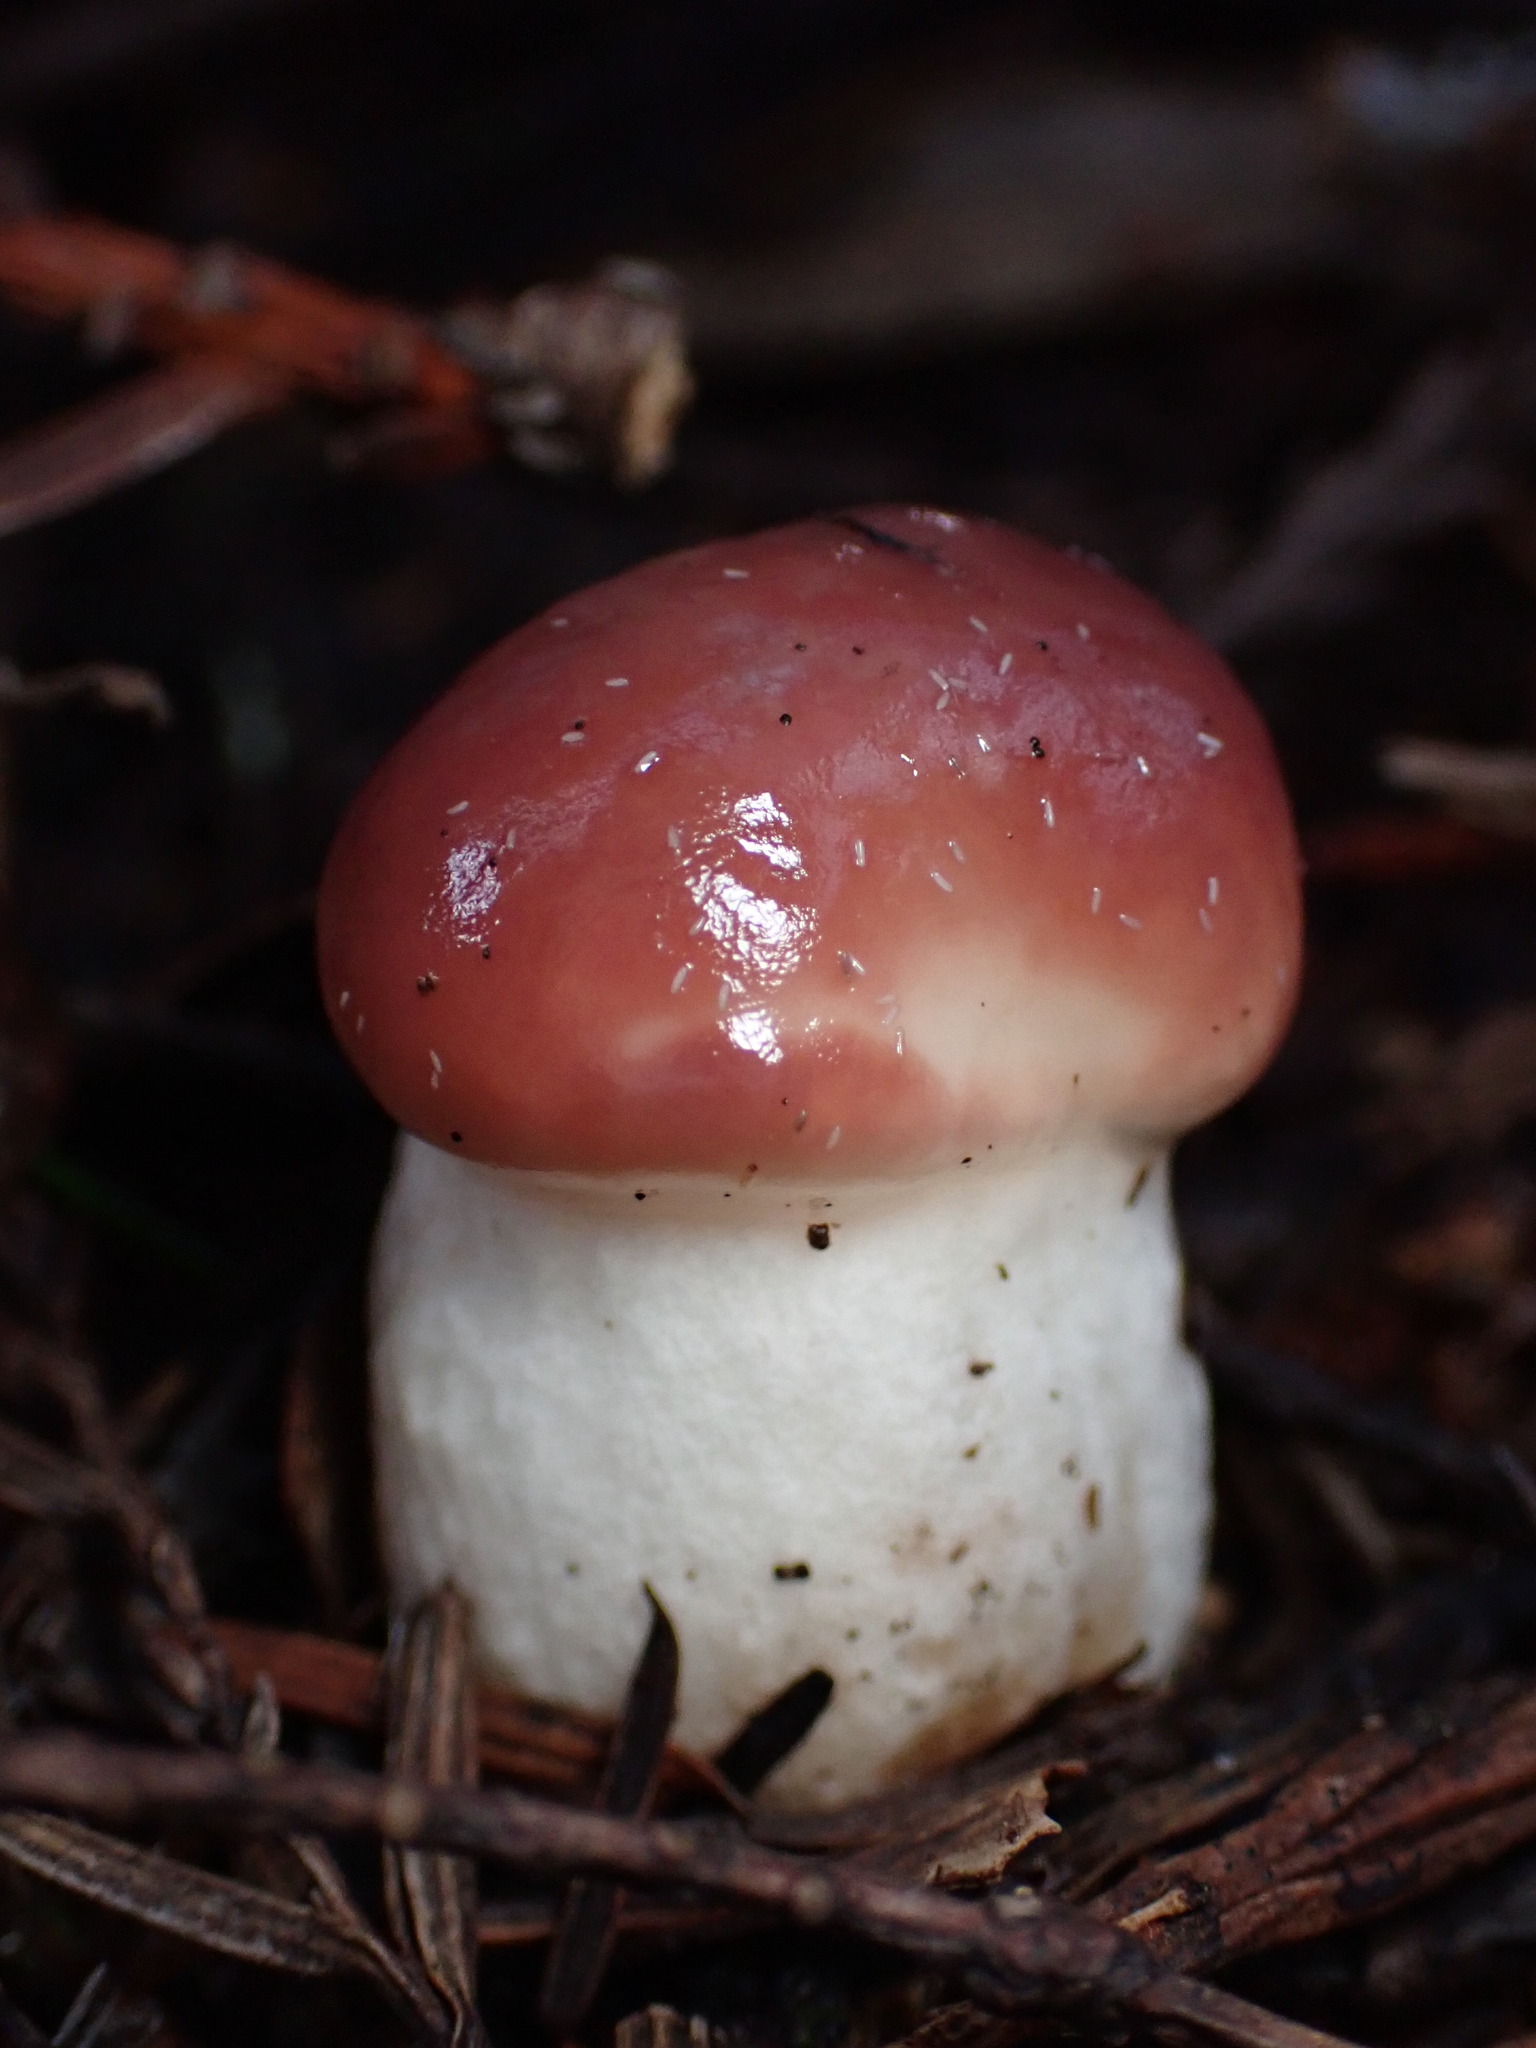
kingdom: Fungi
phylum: Basidiomycota
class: Agaricomycetes
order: Boletales
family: Gomphidiaceae
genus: Gomphidius
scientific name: Gomphidius subroseus
